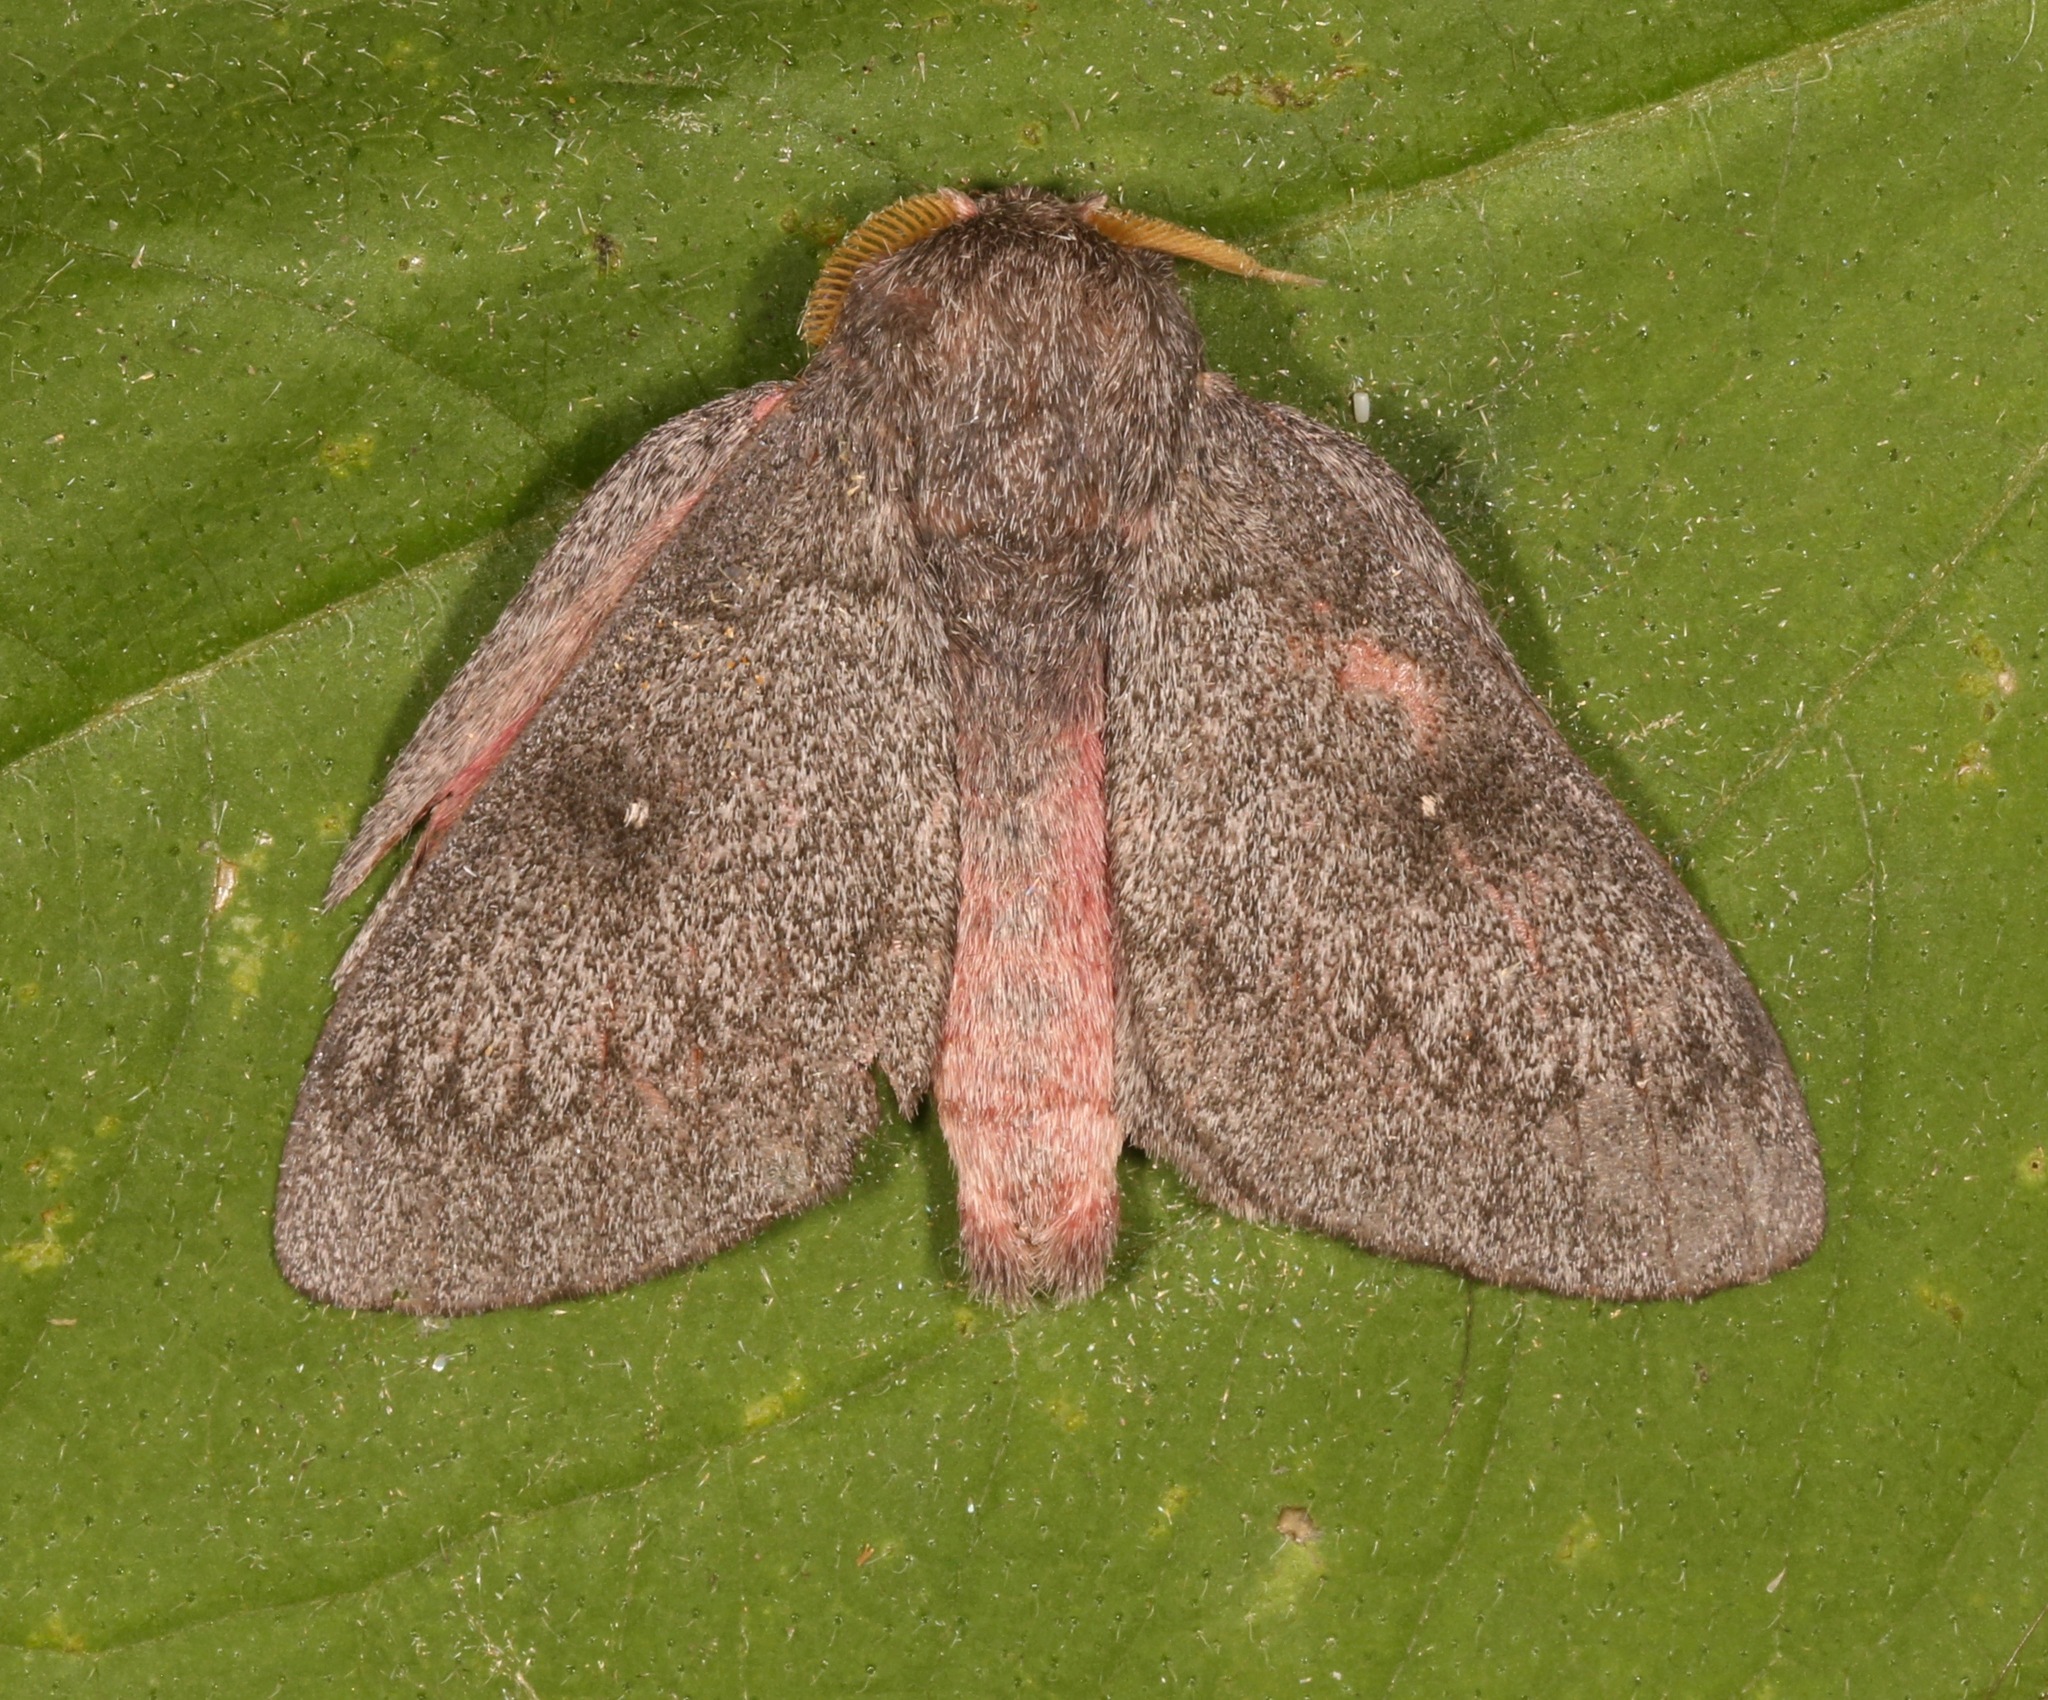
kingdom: Animalia
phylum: Arthropoda
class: Insecta
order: Lepidoptera
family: Saturniidae
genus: Syssphinx
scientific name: Syssphinx hubbardi
